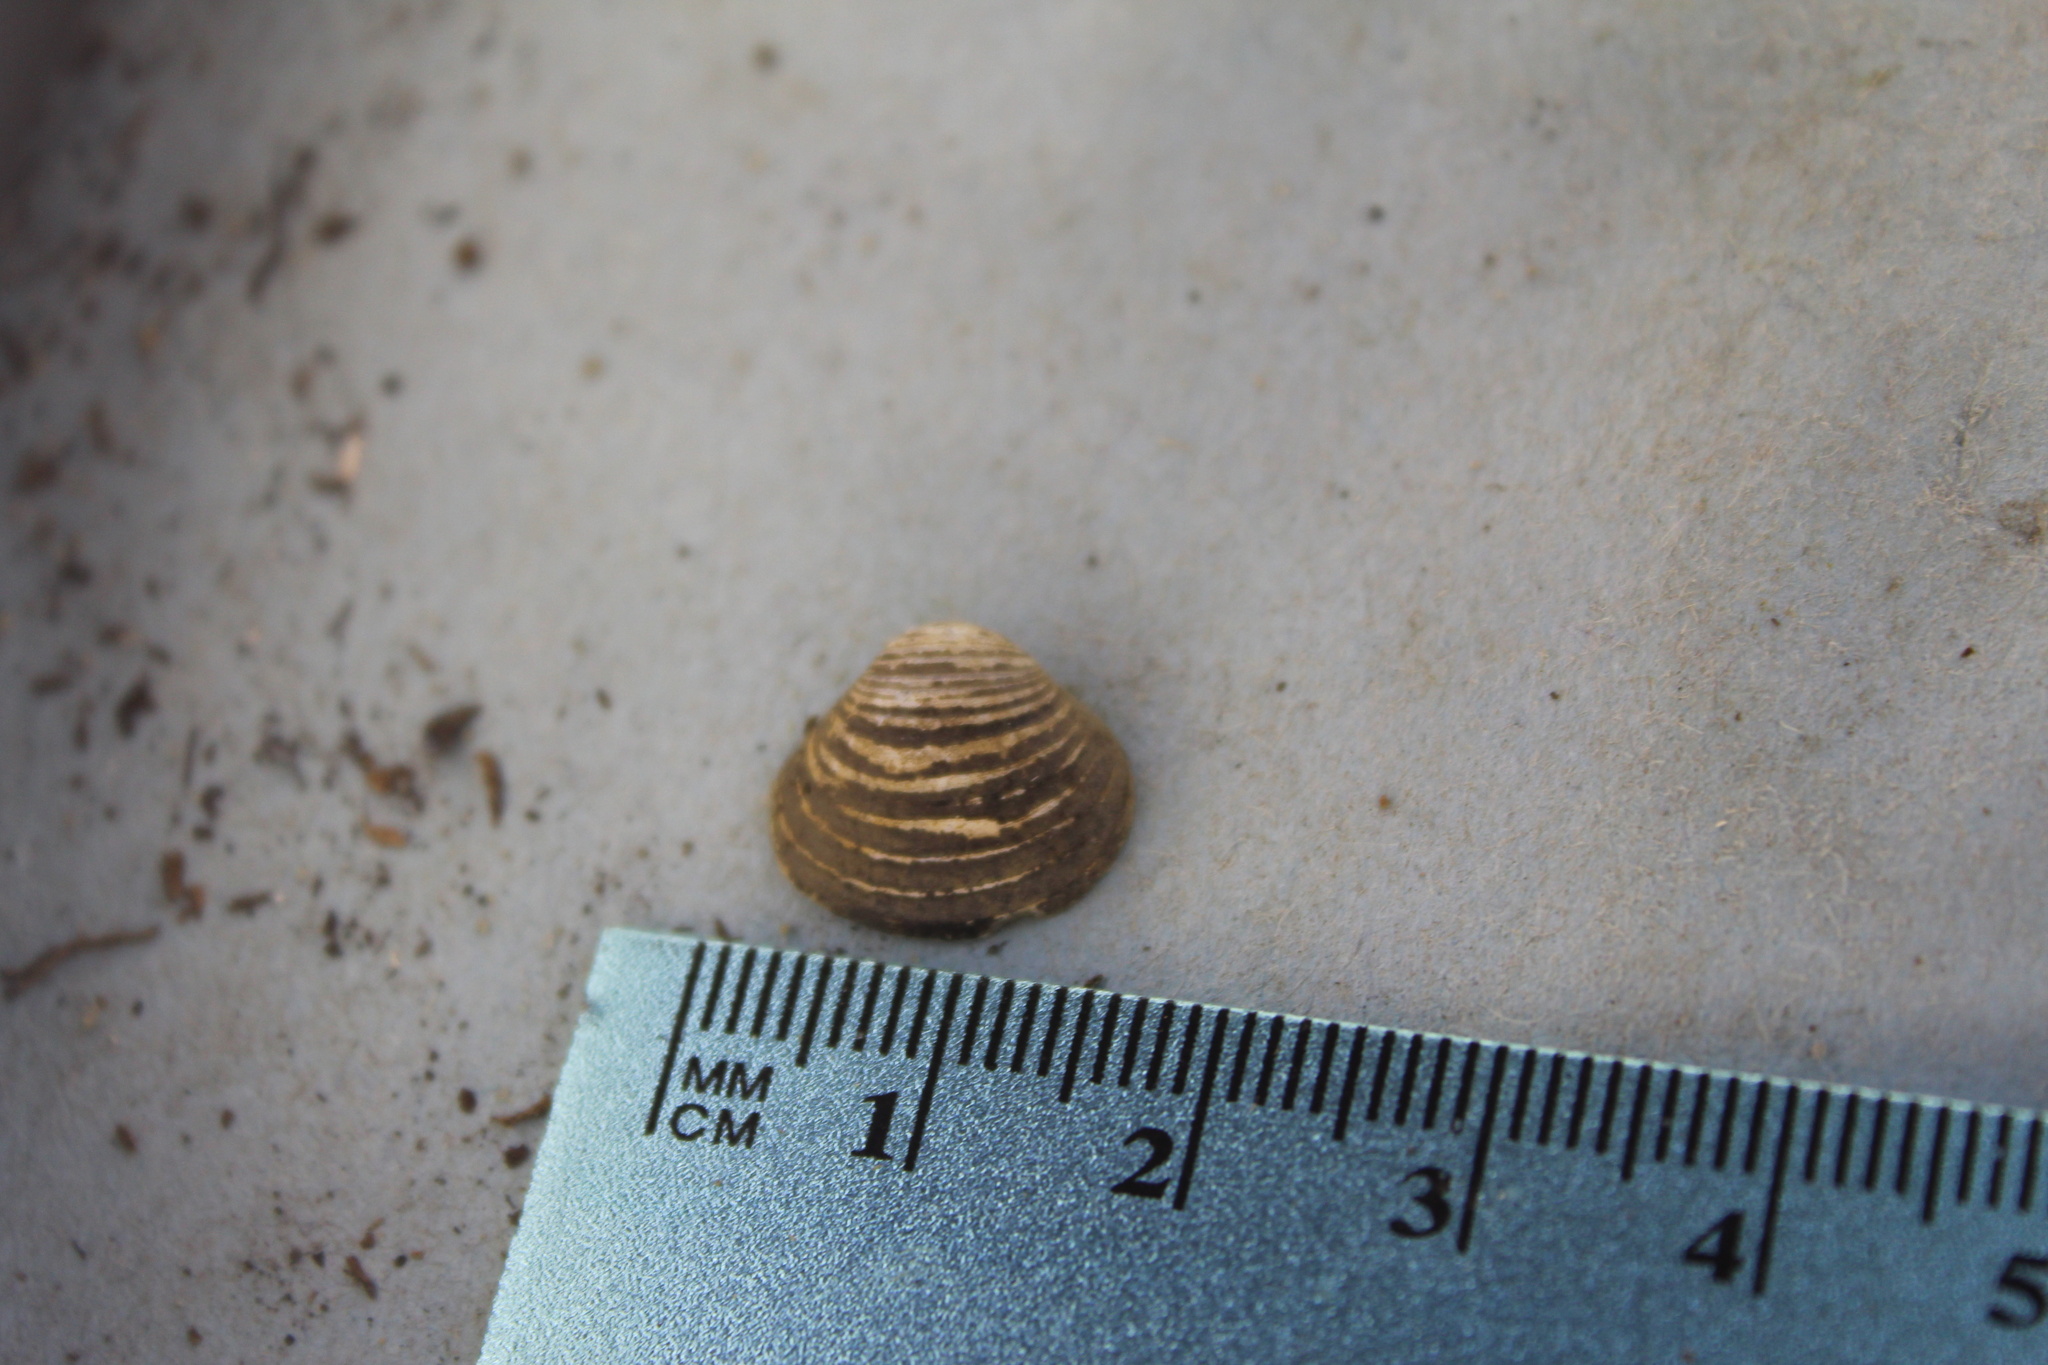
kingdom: Animalia
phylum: Mollusca
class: Bivalvia
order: Venerida
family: Cyrenidae
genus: Corbicula
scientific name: Corbicula fluminea
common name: Asian clam
